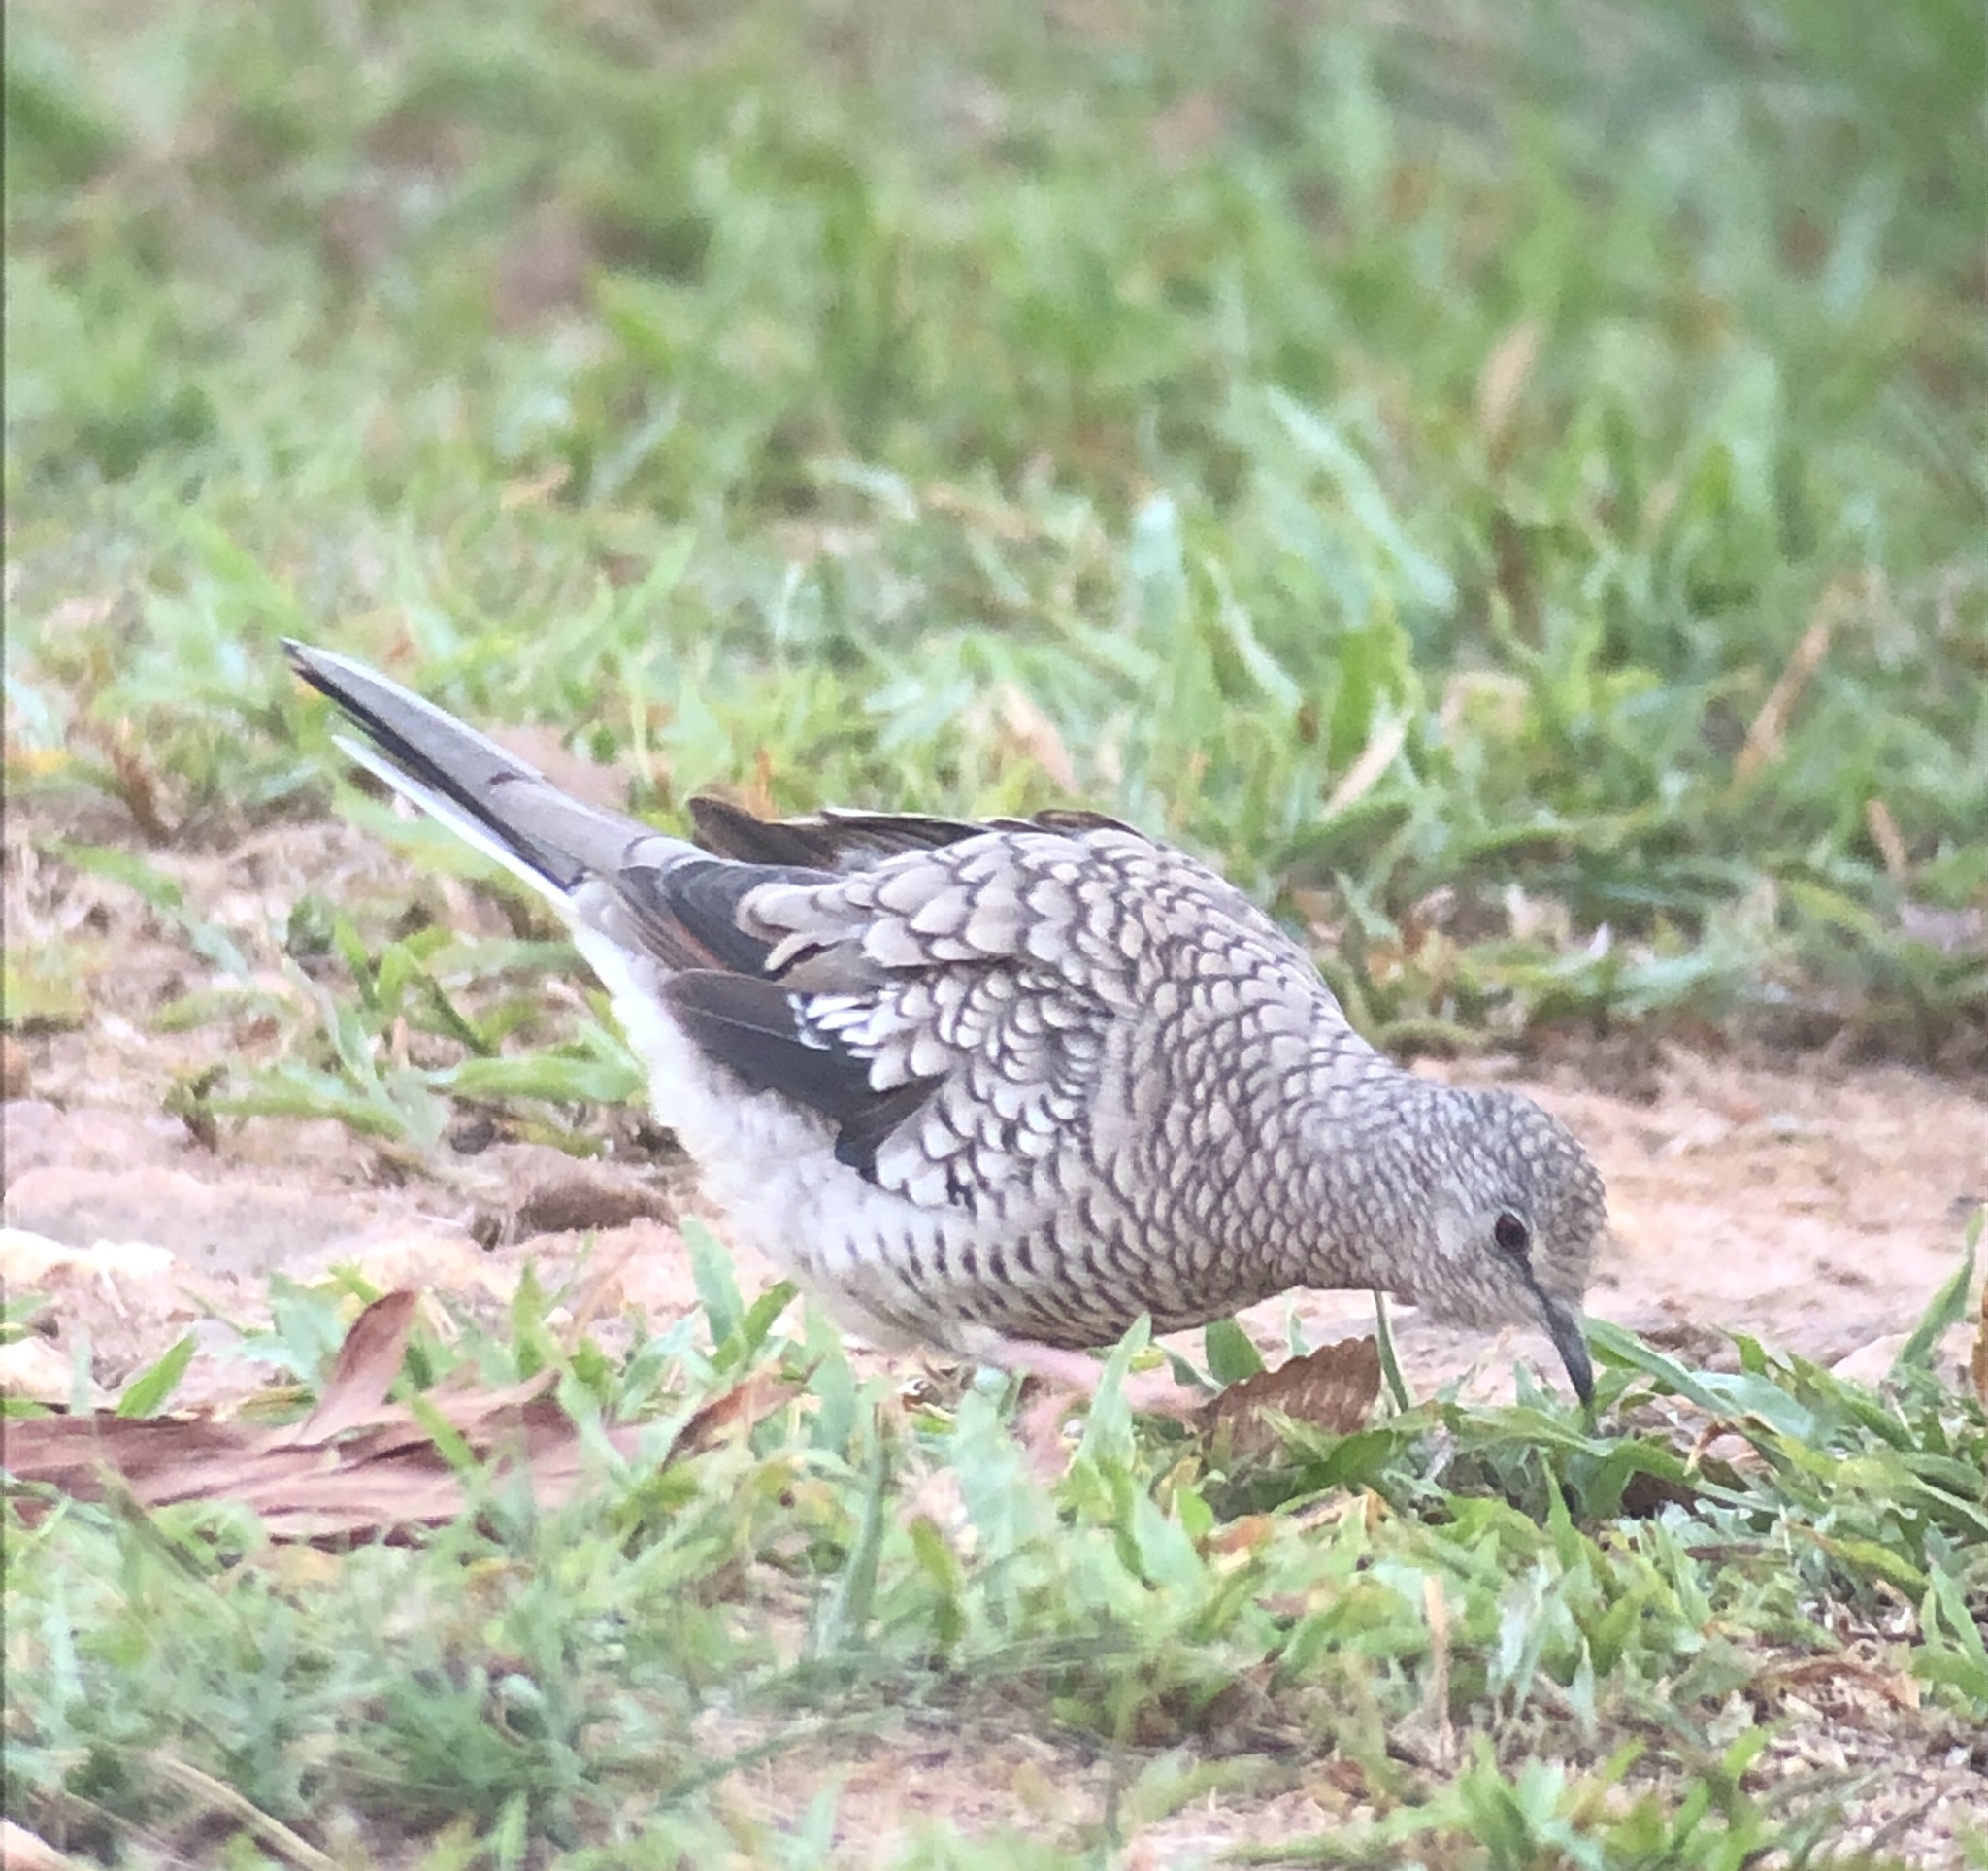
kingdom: Animalia
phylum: Chordata
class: Aves
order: Columbiformes
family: Columbidae
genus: Columbina
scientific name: Columbina squammata
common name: Scaled dove
